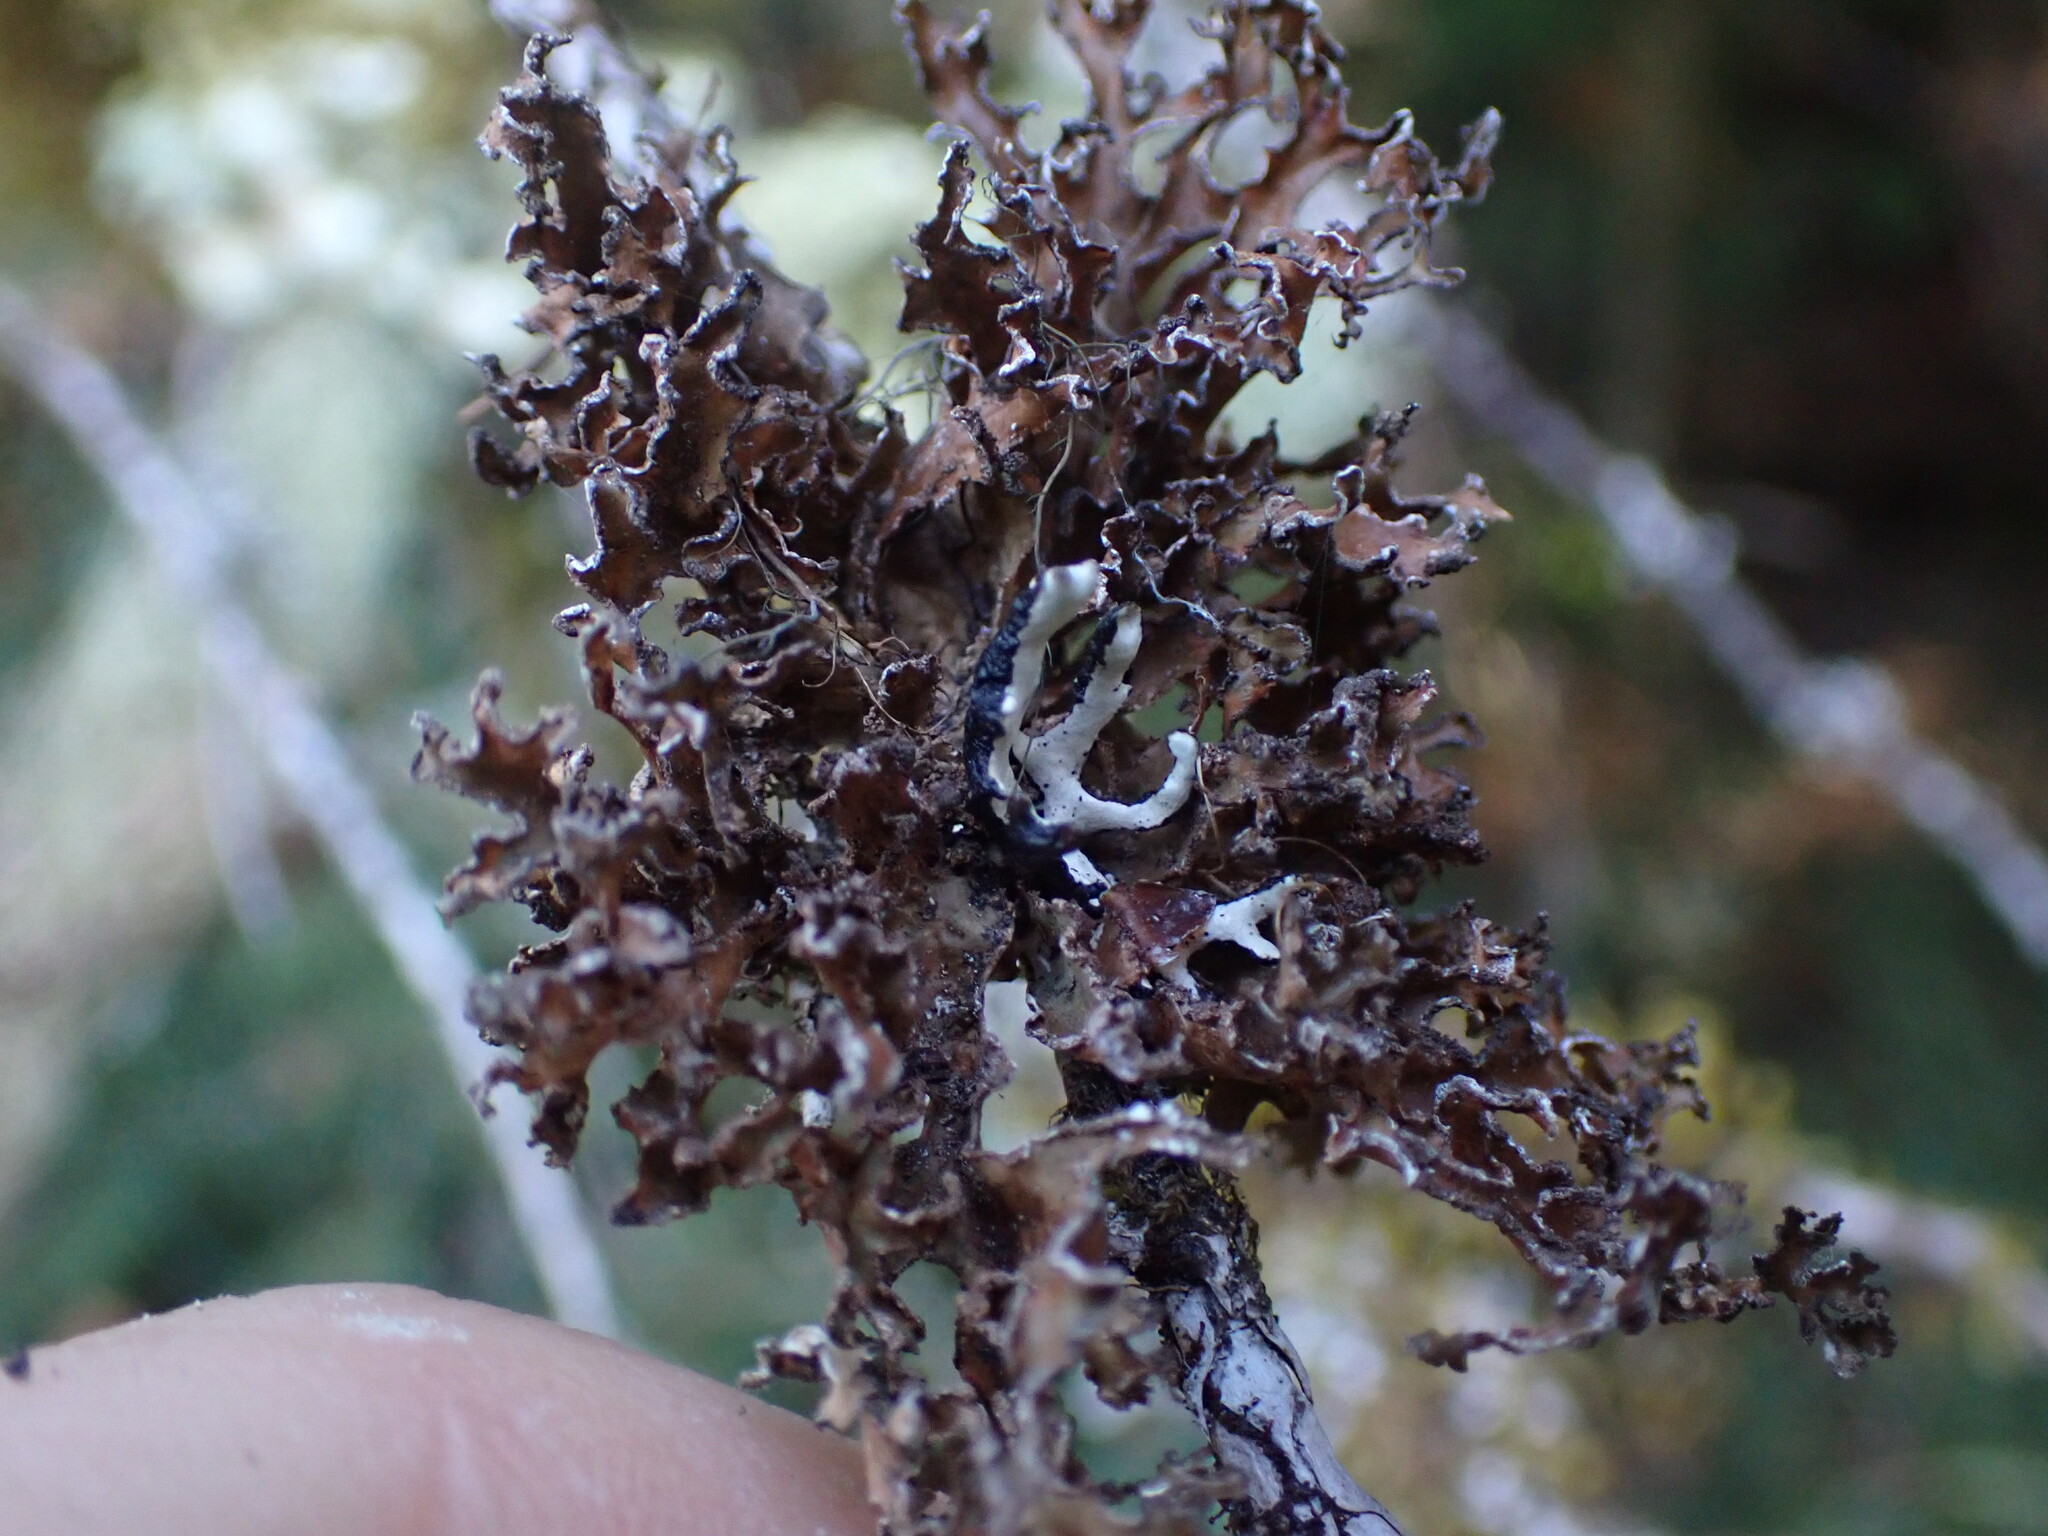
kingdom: Fungi
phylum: Ascomycota
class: Lecanoromycetes
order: Lecanorales
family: Parmeliaceae
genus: Nephromopsis
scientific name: Nephromopsis chlorophylla
